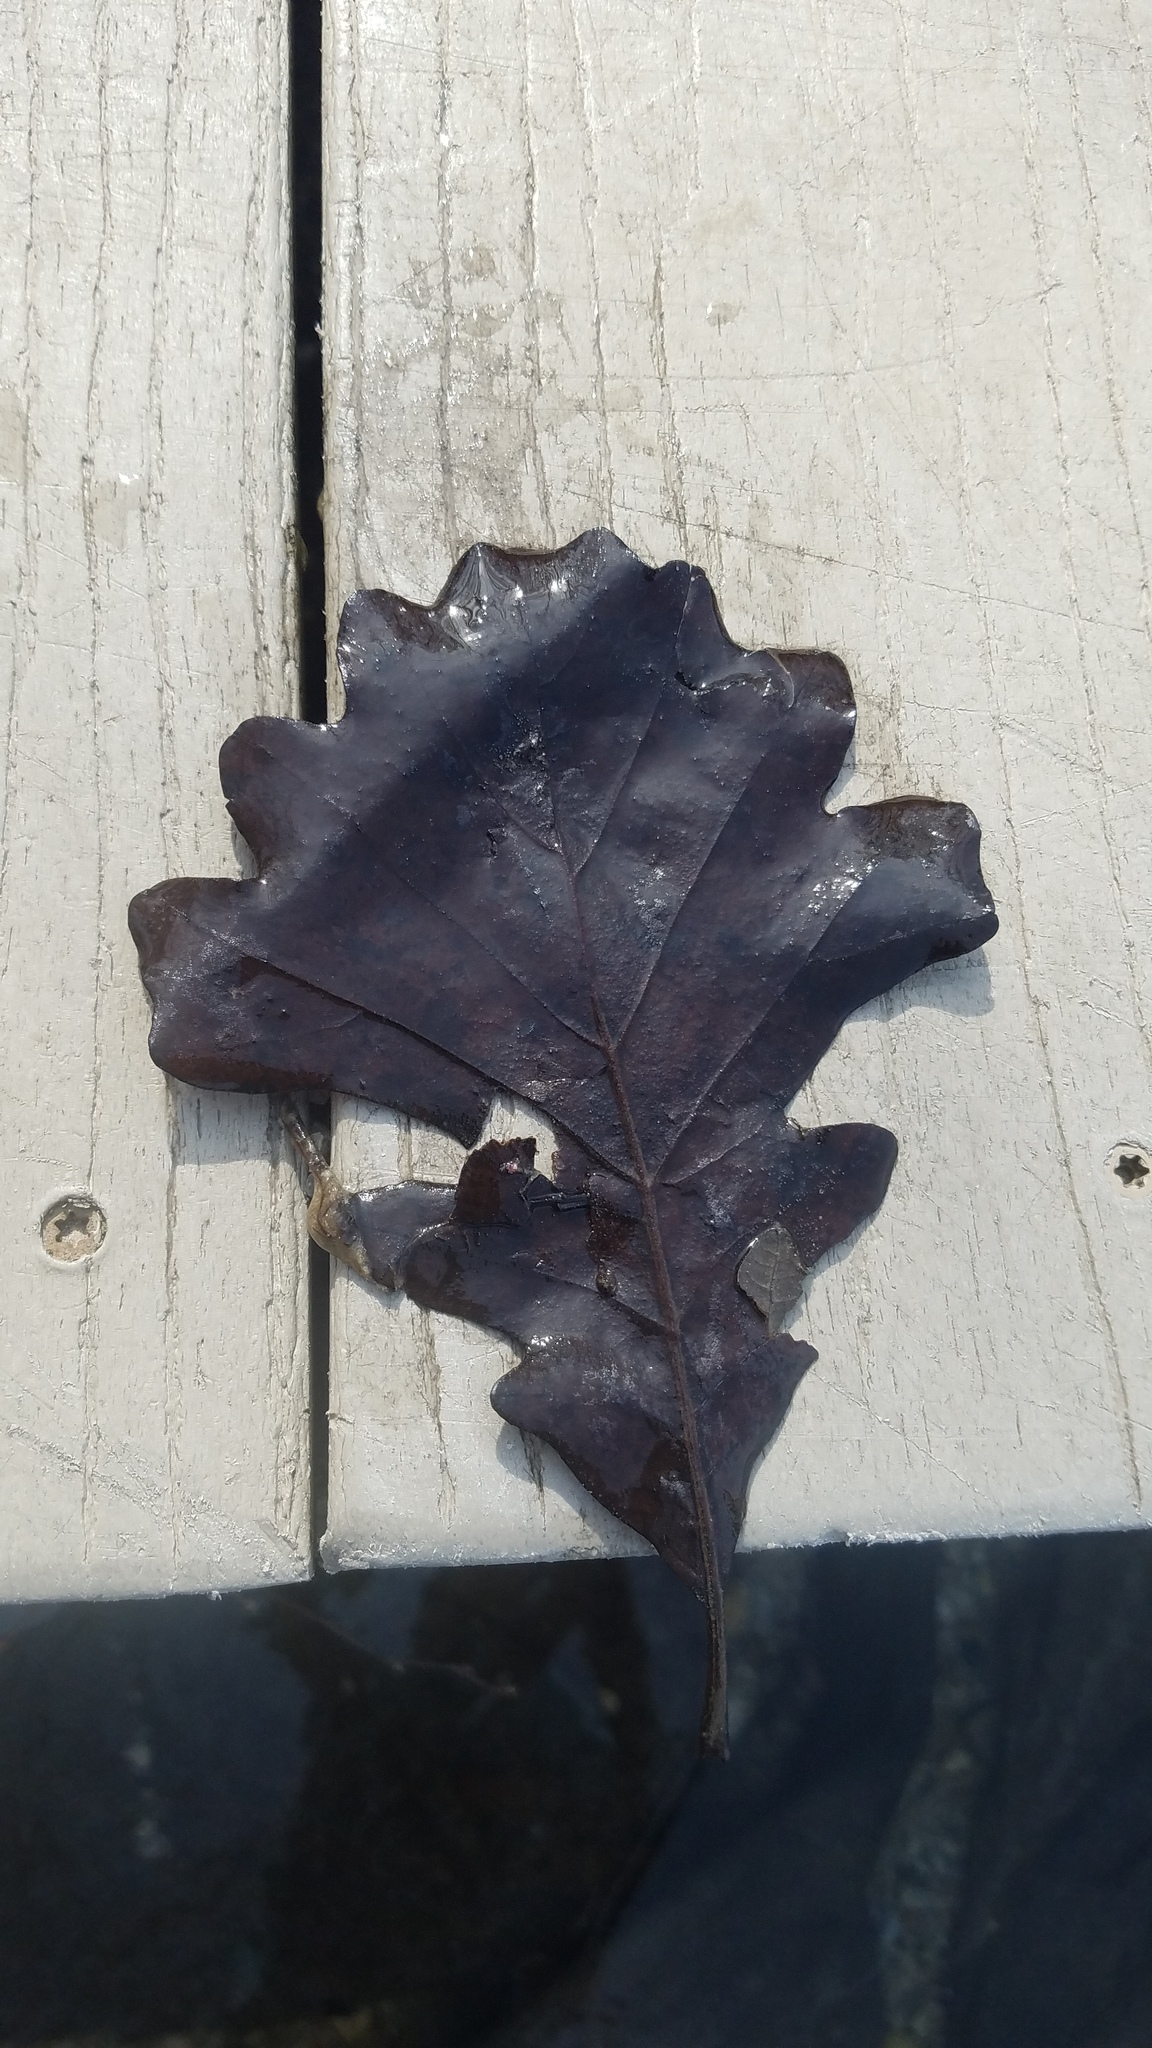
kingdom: Plantae
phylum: Tracheophyta
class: Magnoliopsida
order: Fagales
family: Fagaceae
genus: Quercus
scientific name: Quercus macrocarpa
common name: Bur oak
